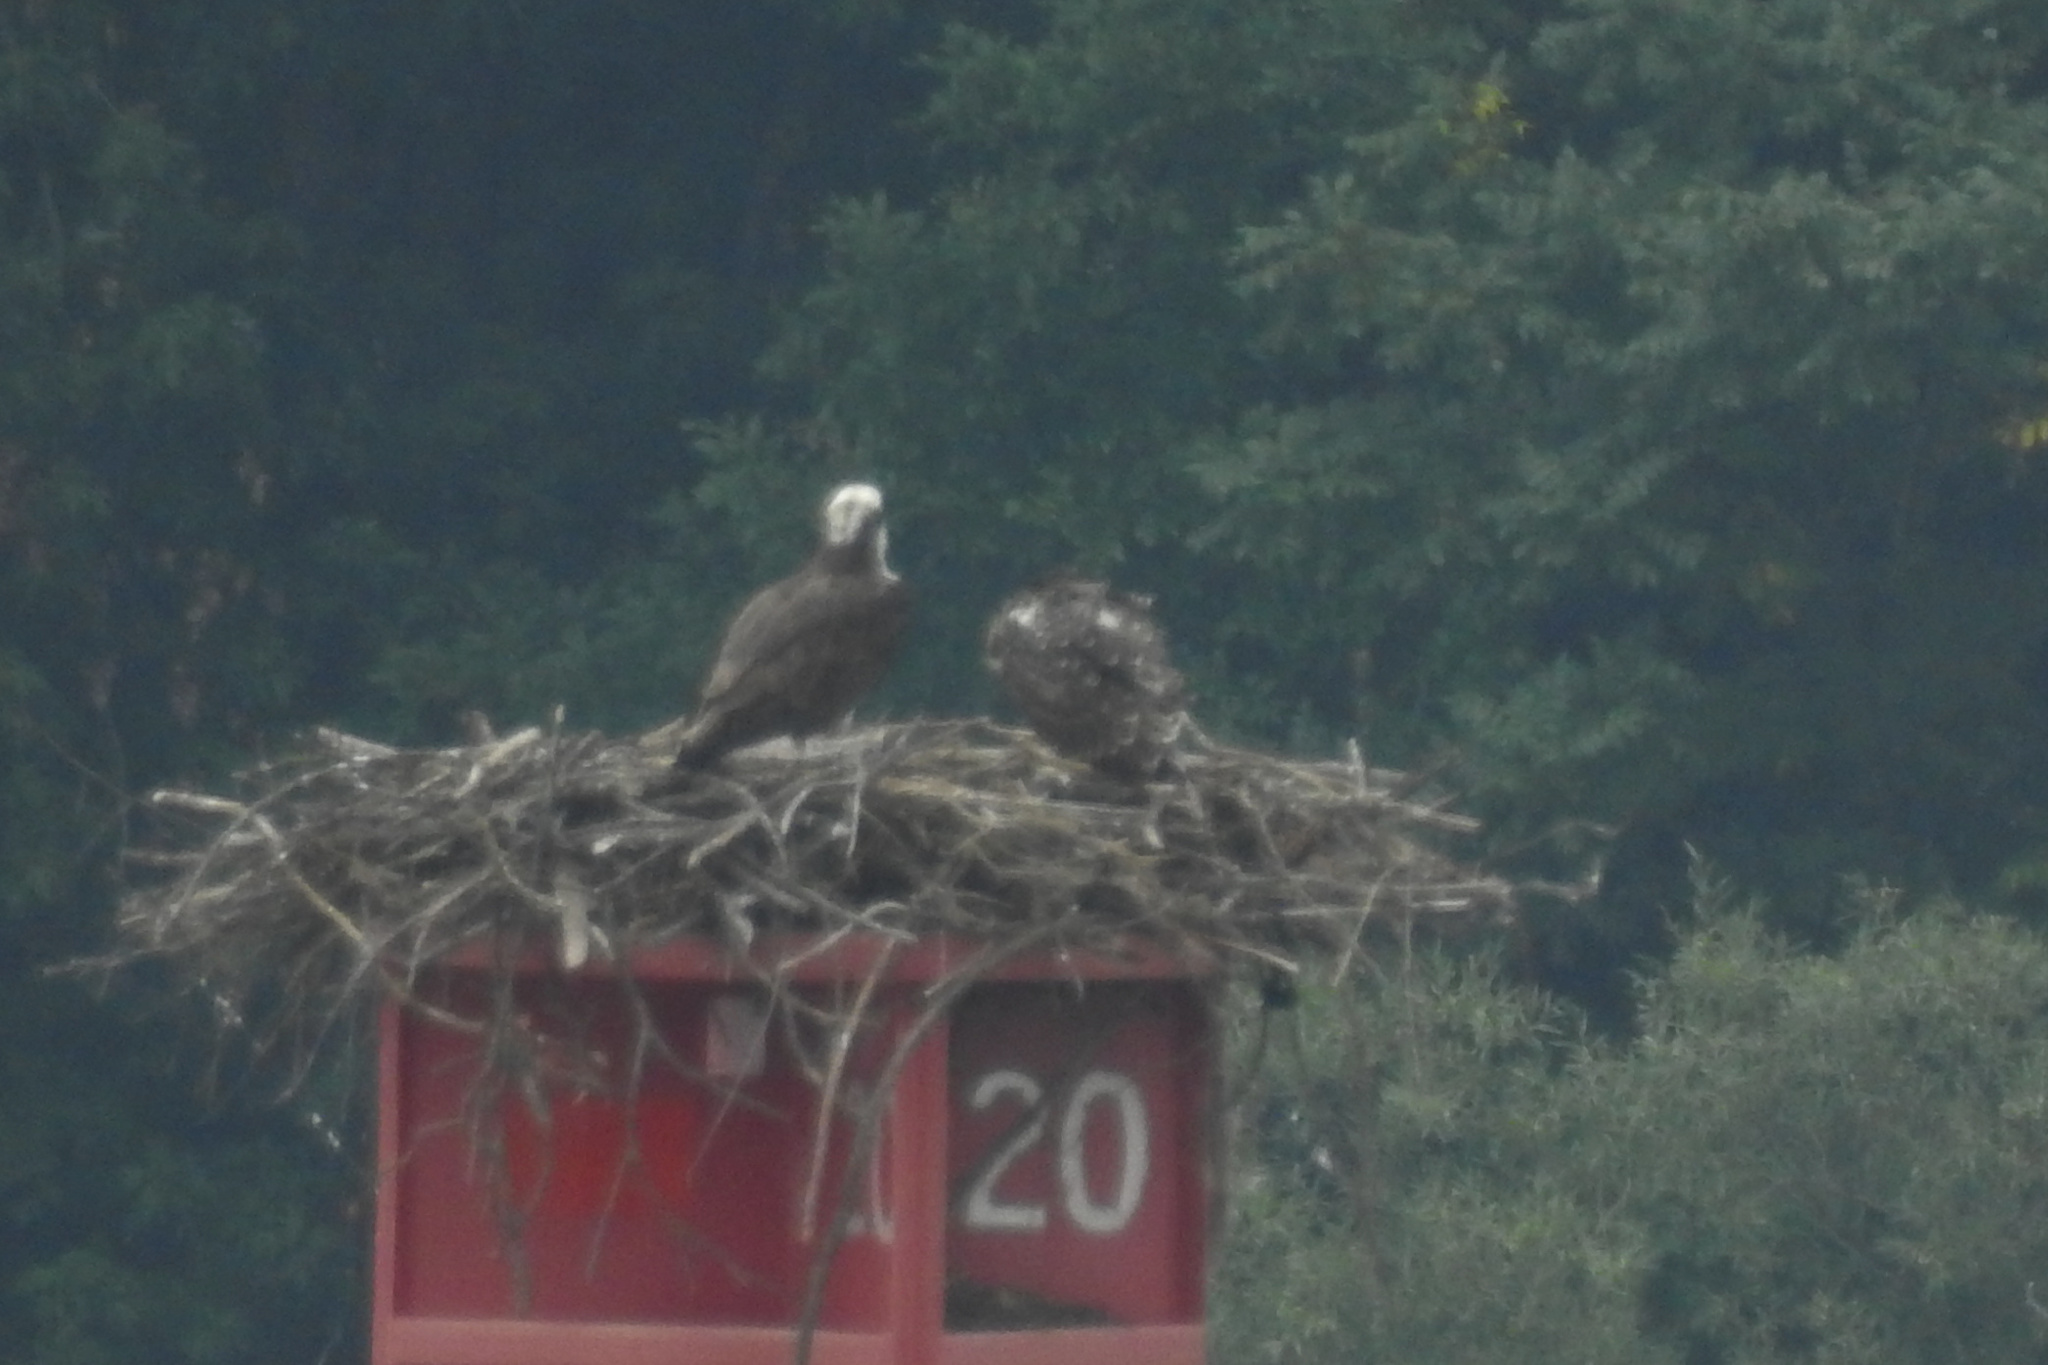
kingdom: Animalia
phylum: Chordata
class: Aves
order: Accipitriformes
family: Pandionidae
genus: Pandion
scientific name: Pandion haliaetus
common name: Osprey
